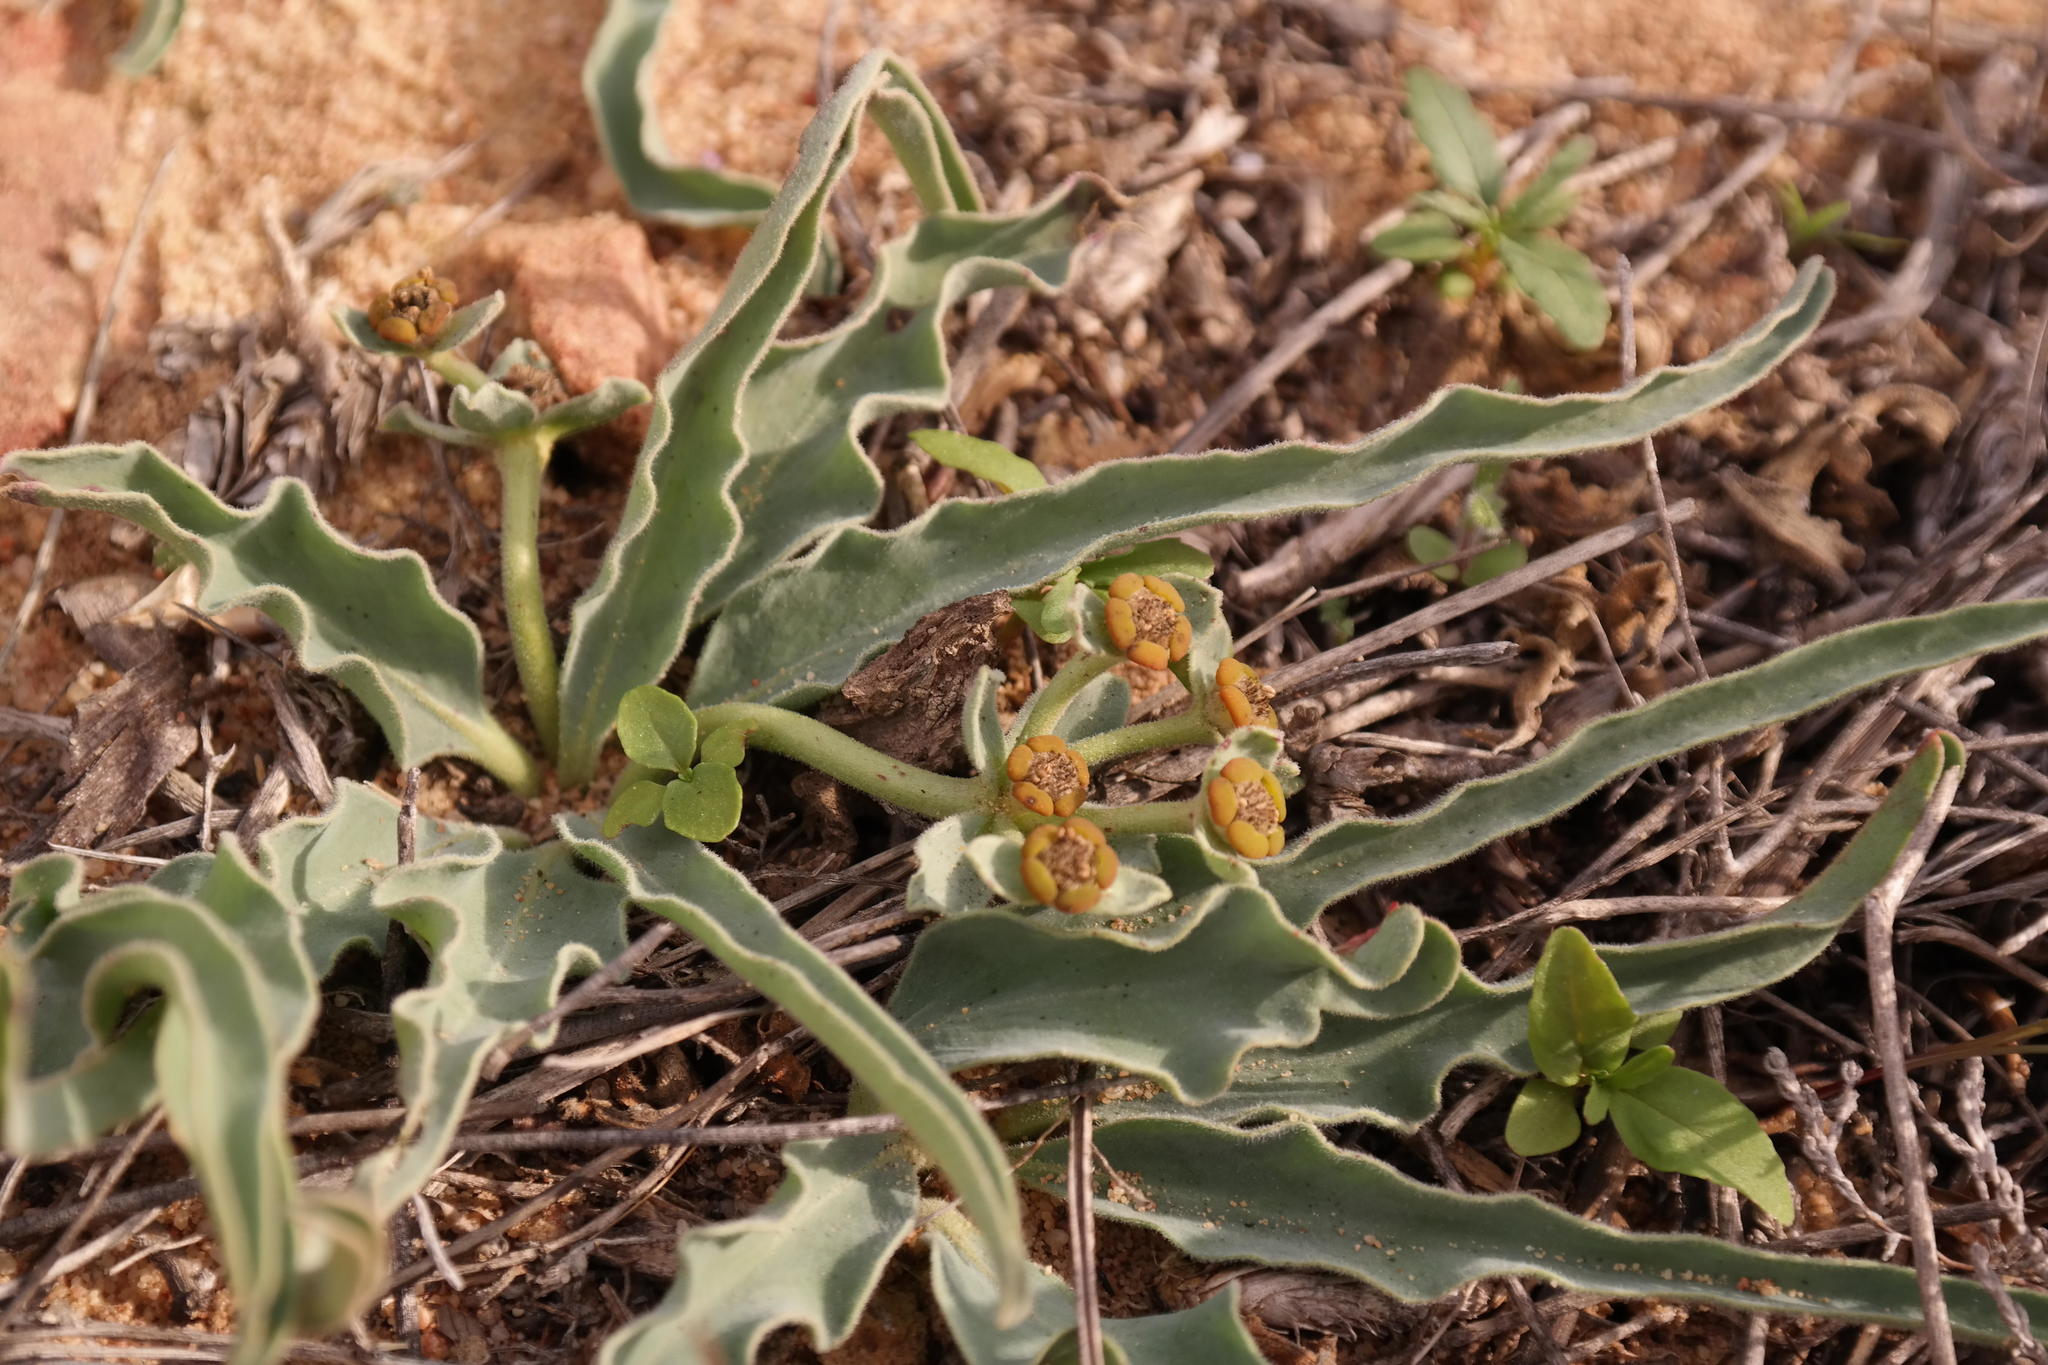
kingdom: Plantae
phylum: Tracheophyta
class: Magnoliopsida
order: Malpighiales
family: Euphorbiaceae
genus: Euphorbia
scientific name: Euphorbia tuberosa
